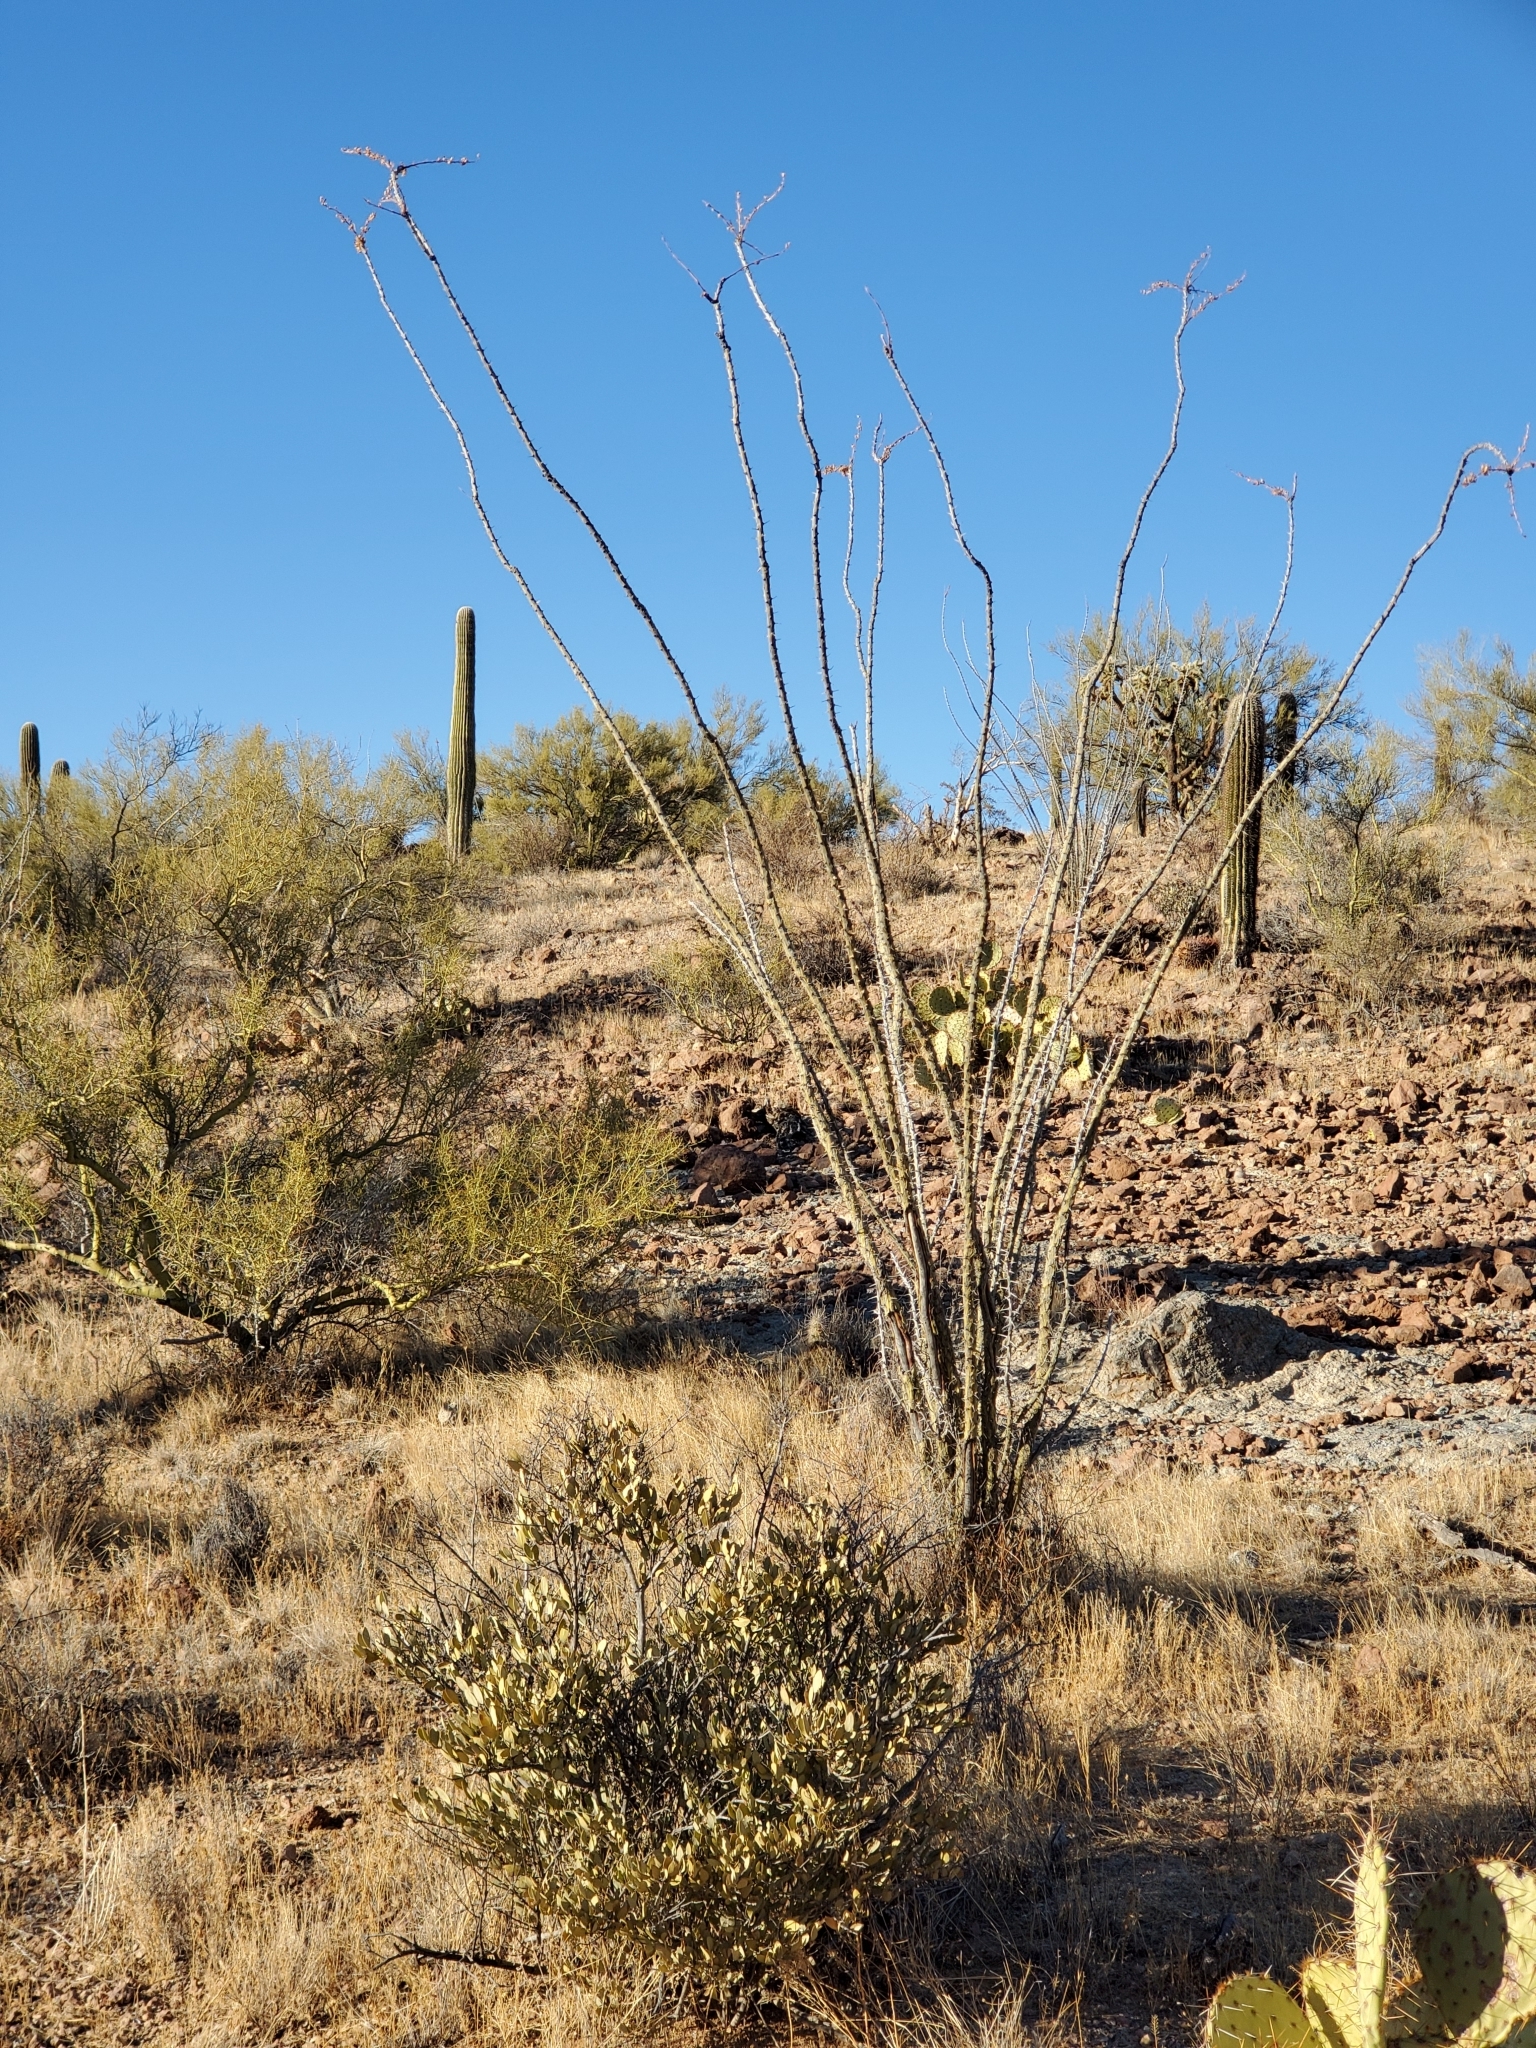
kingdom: Plantae
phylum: Tracheophyta
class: Magnoliopsida
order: Ericales
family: Fouquieriaceae
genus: Fouquieria
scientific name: Fouquieria splendens
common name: Vine-cactus
